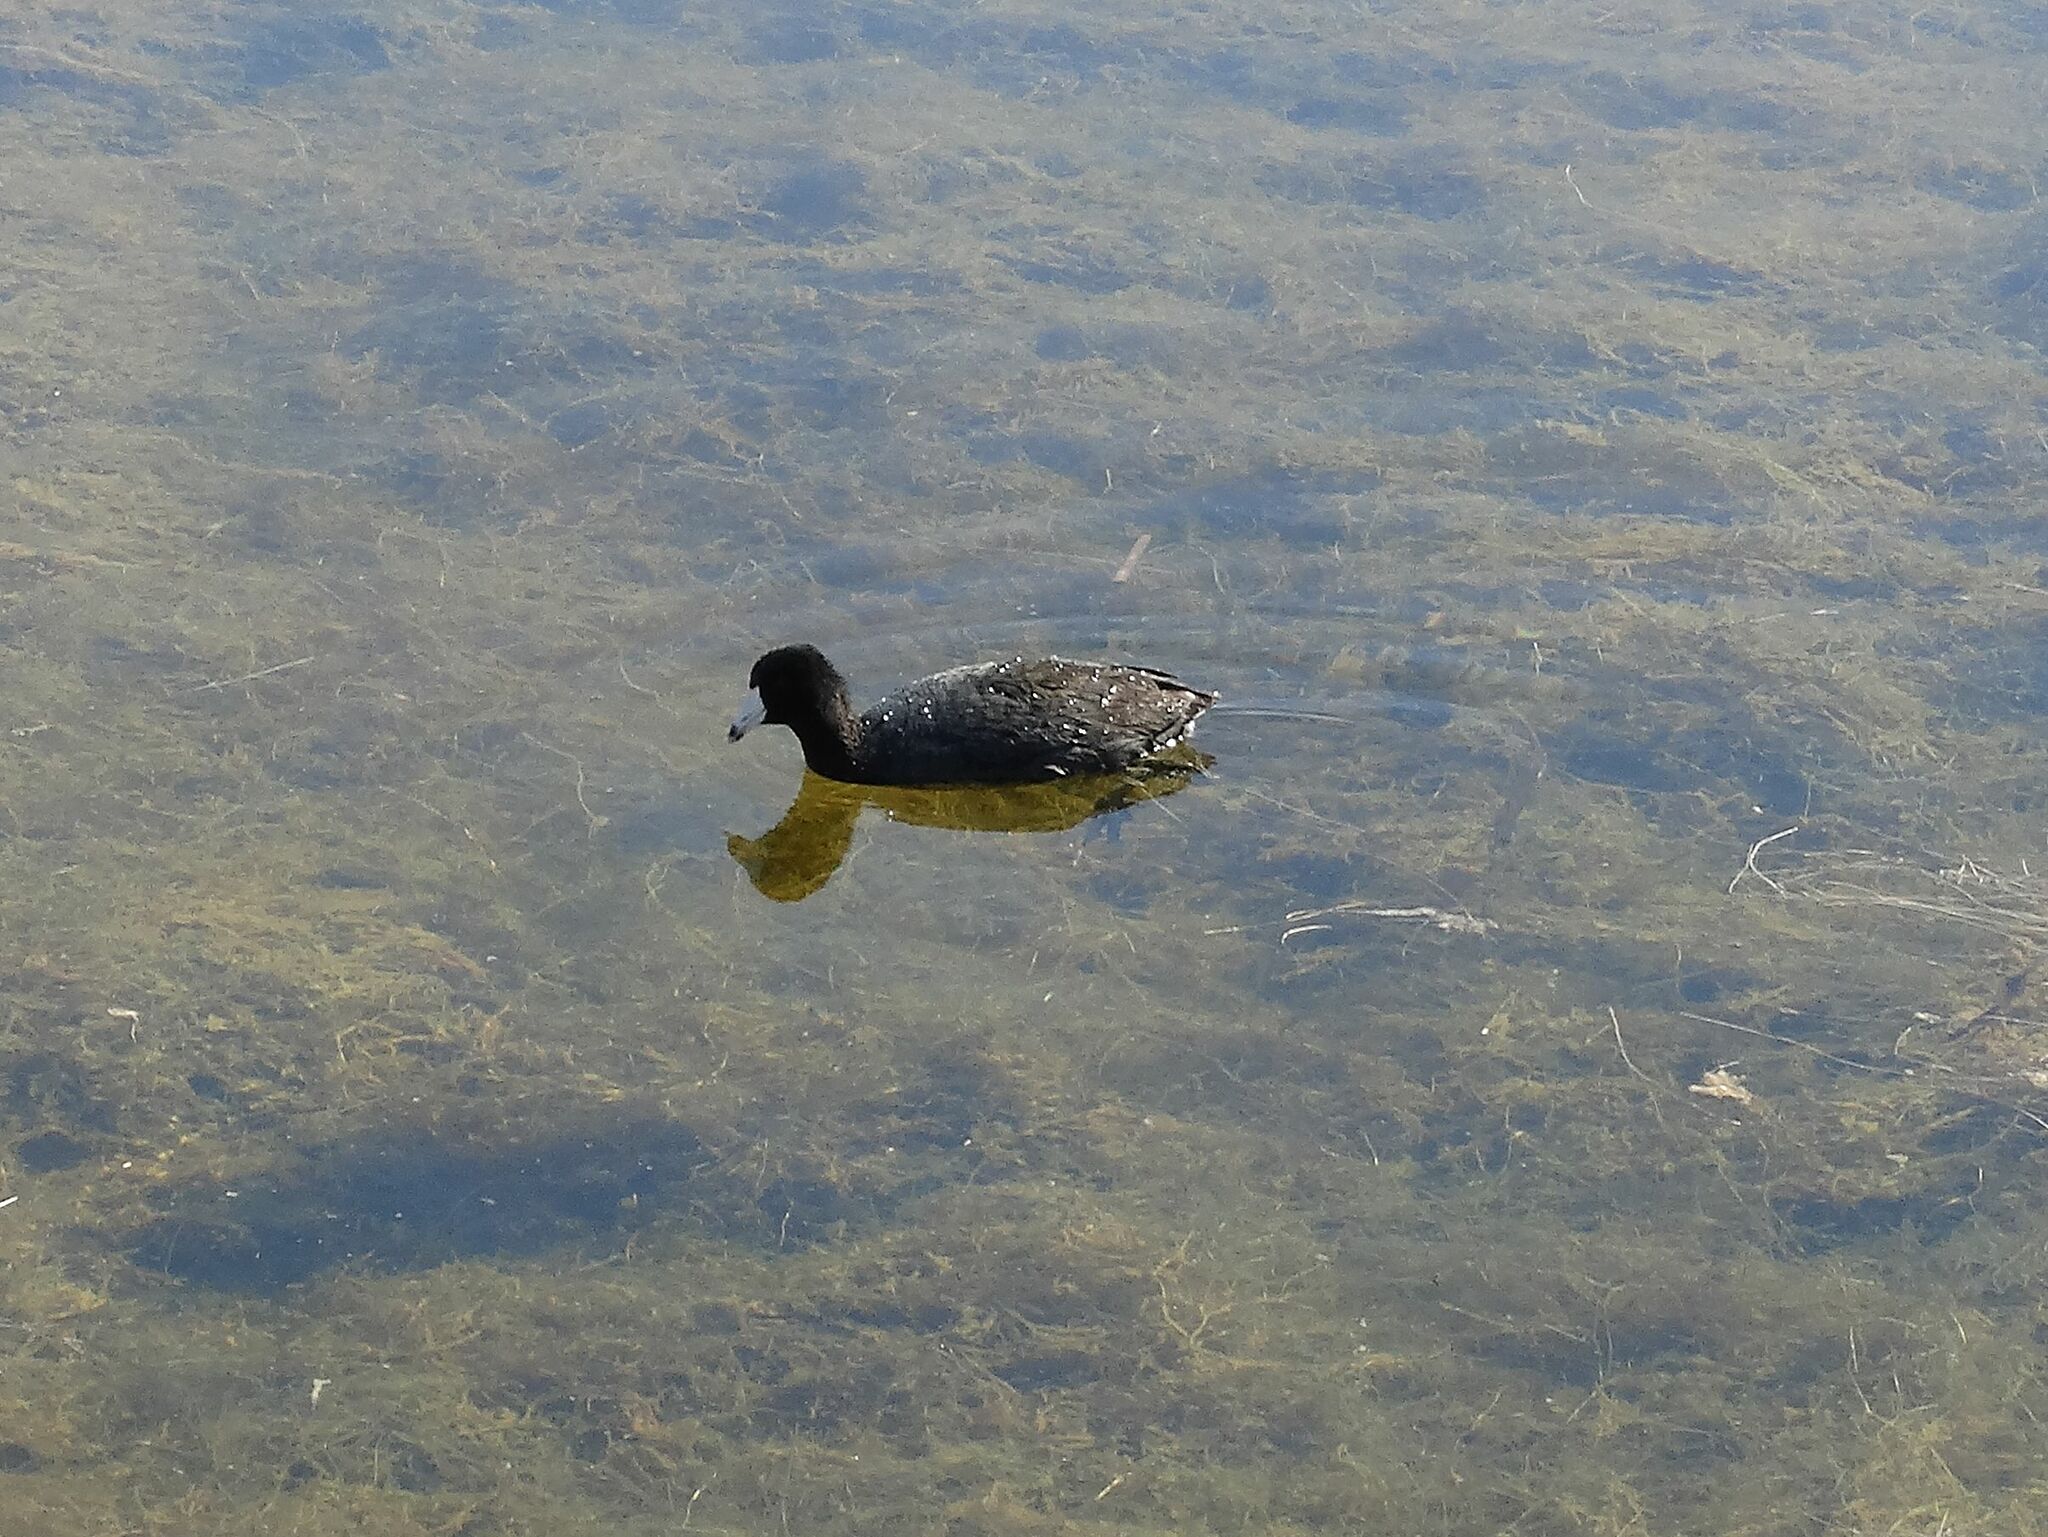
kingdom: Animalia
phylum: Chordata
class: Aves
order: Gruiformes
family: Rallidae
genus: Fulica
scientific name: Fulica americana
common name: American coot
